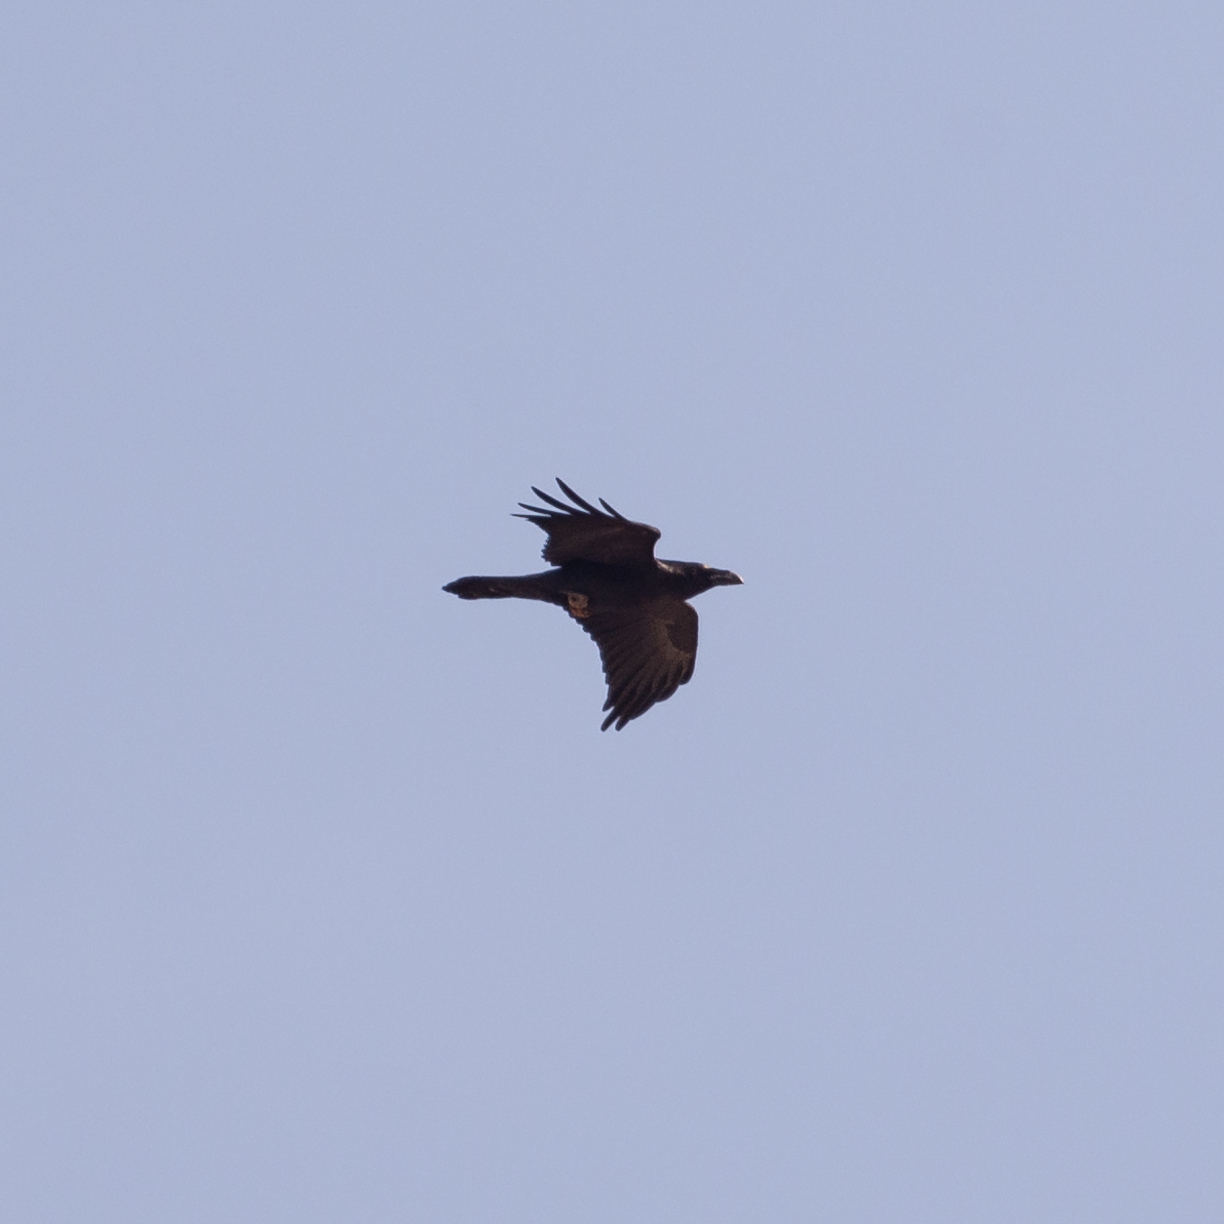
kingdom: Animalia
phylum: Chordata
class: Aves
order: Passeriformes
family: Corvidae
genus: Corvus
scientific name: Corvus corax
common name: Common raven
